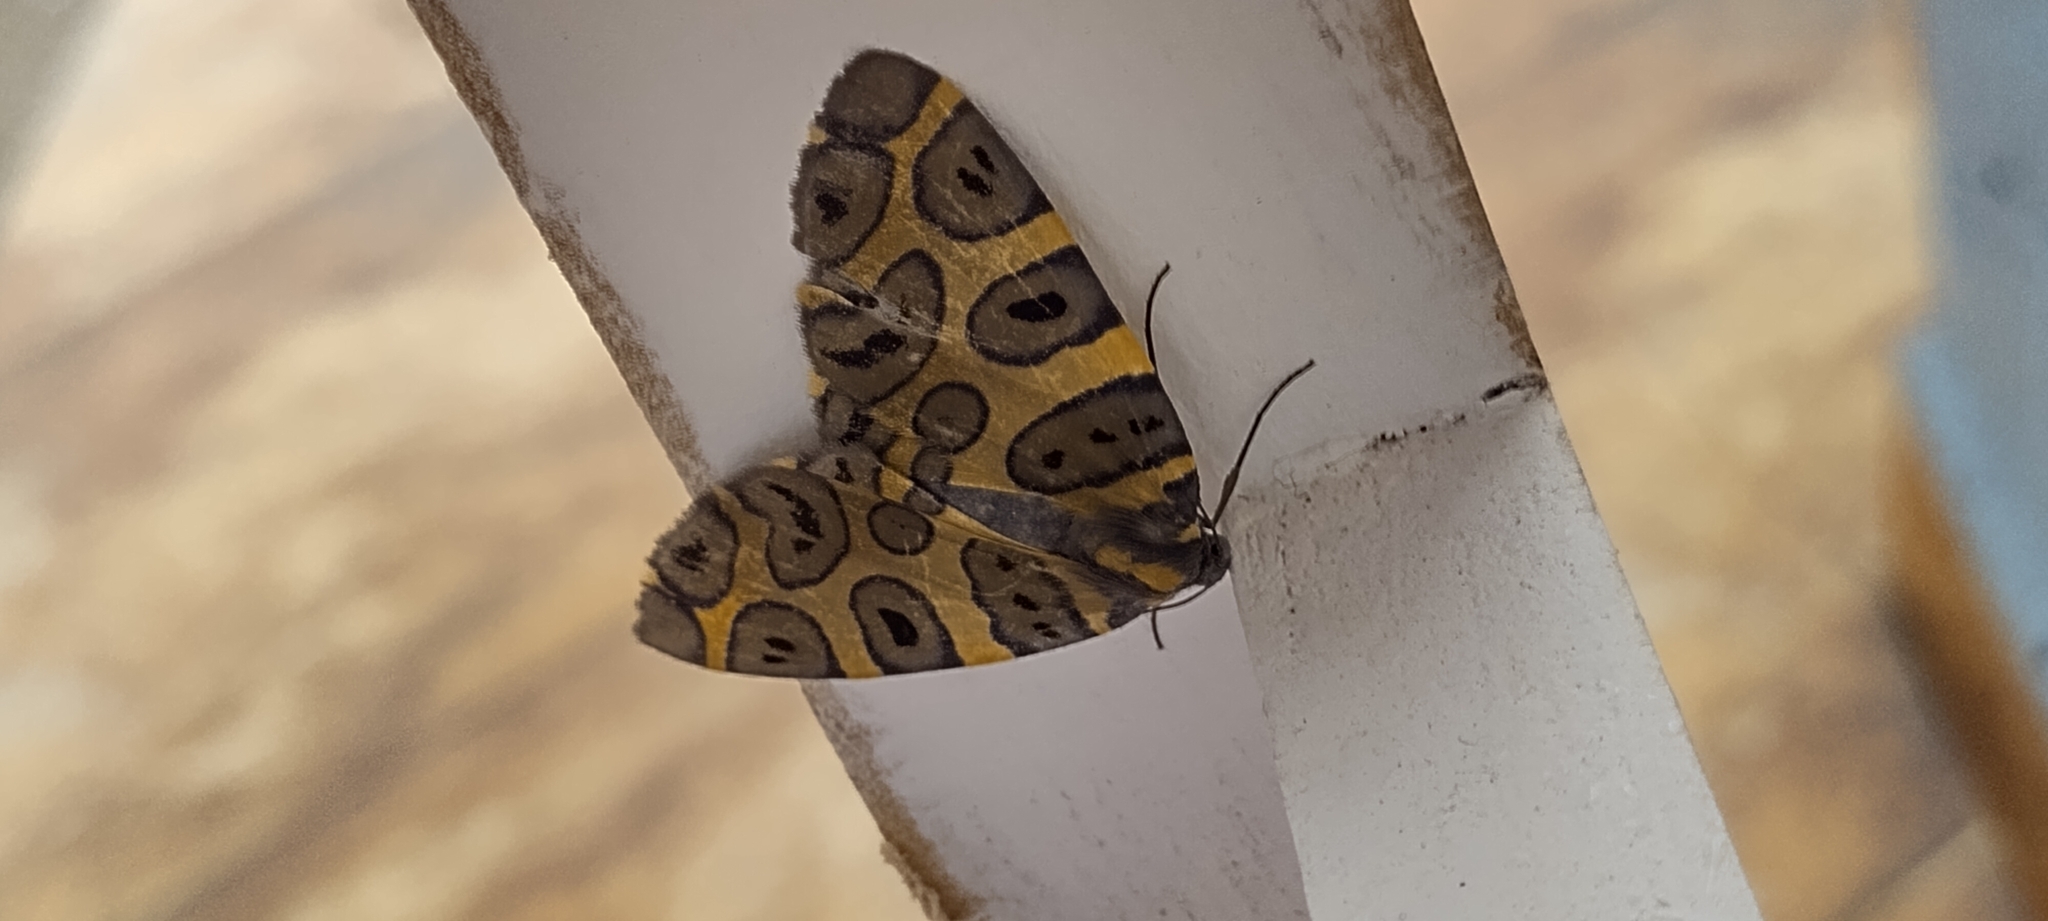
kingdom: Animalia
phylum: Arthropoda
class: Insecta
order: Lepidoptera
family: Geometridae
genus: Pantherodes
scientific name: Pantherodes pardalaria
